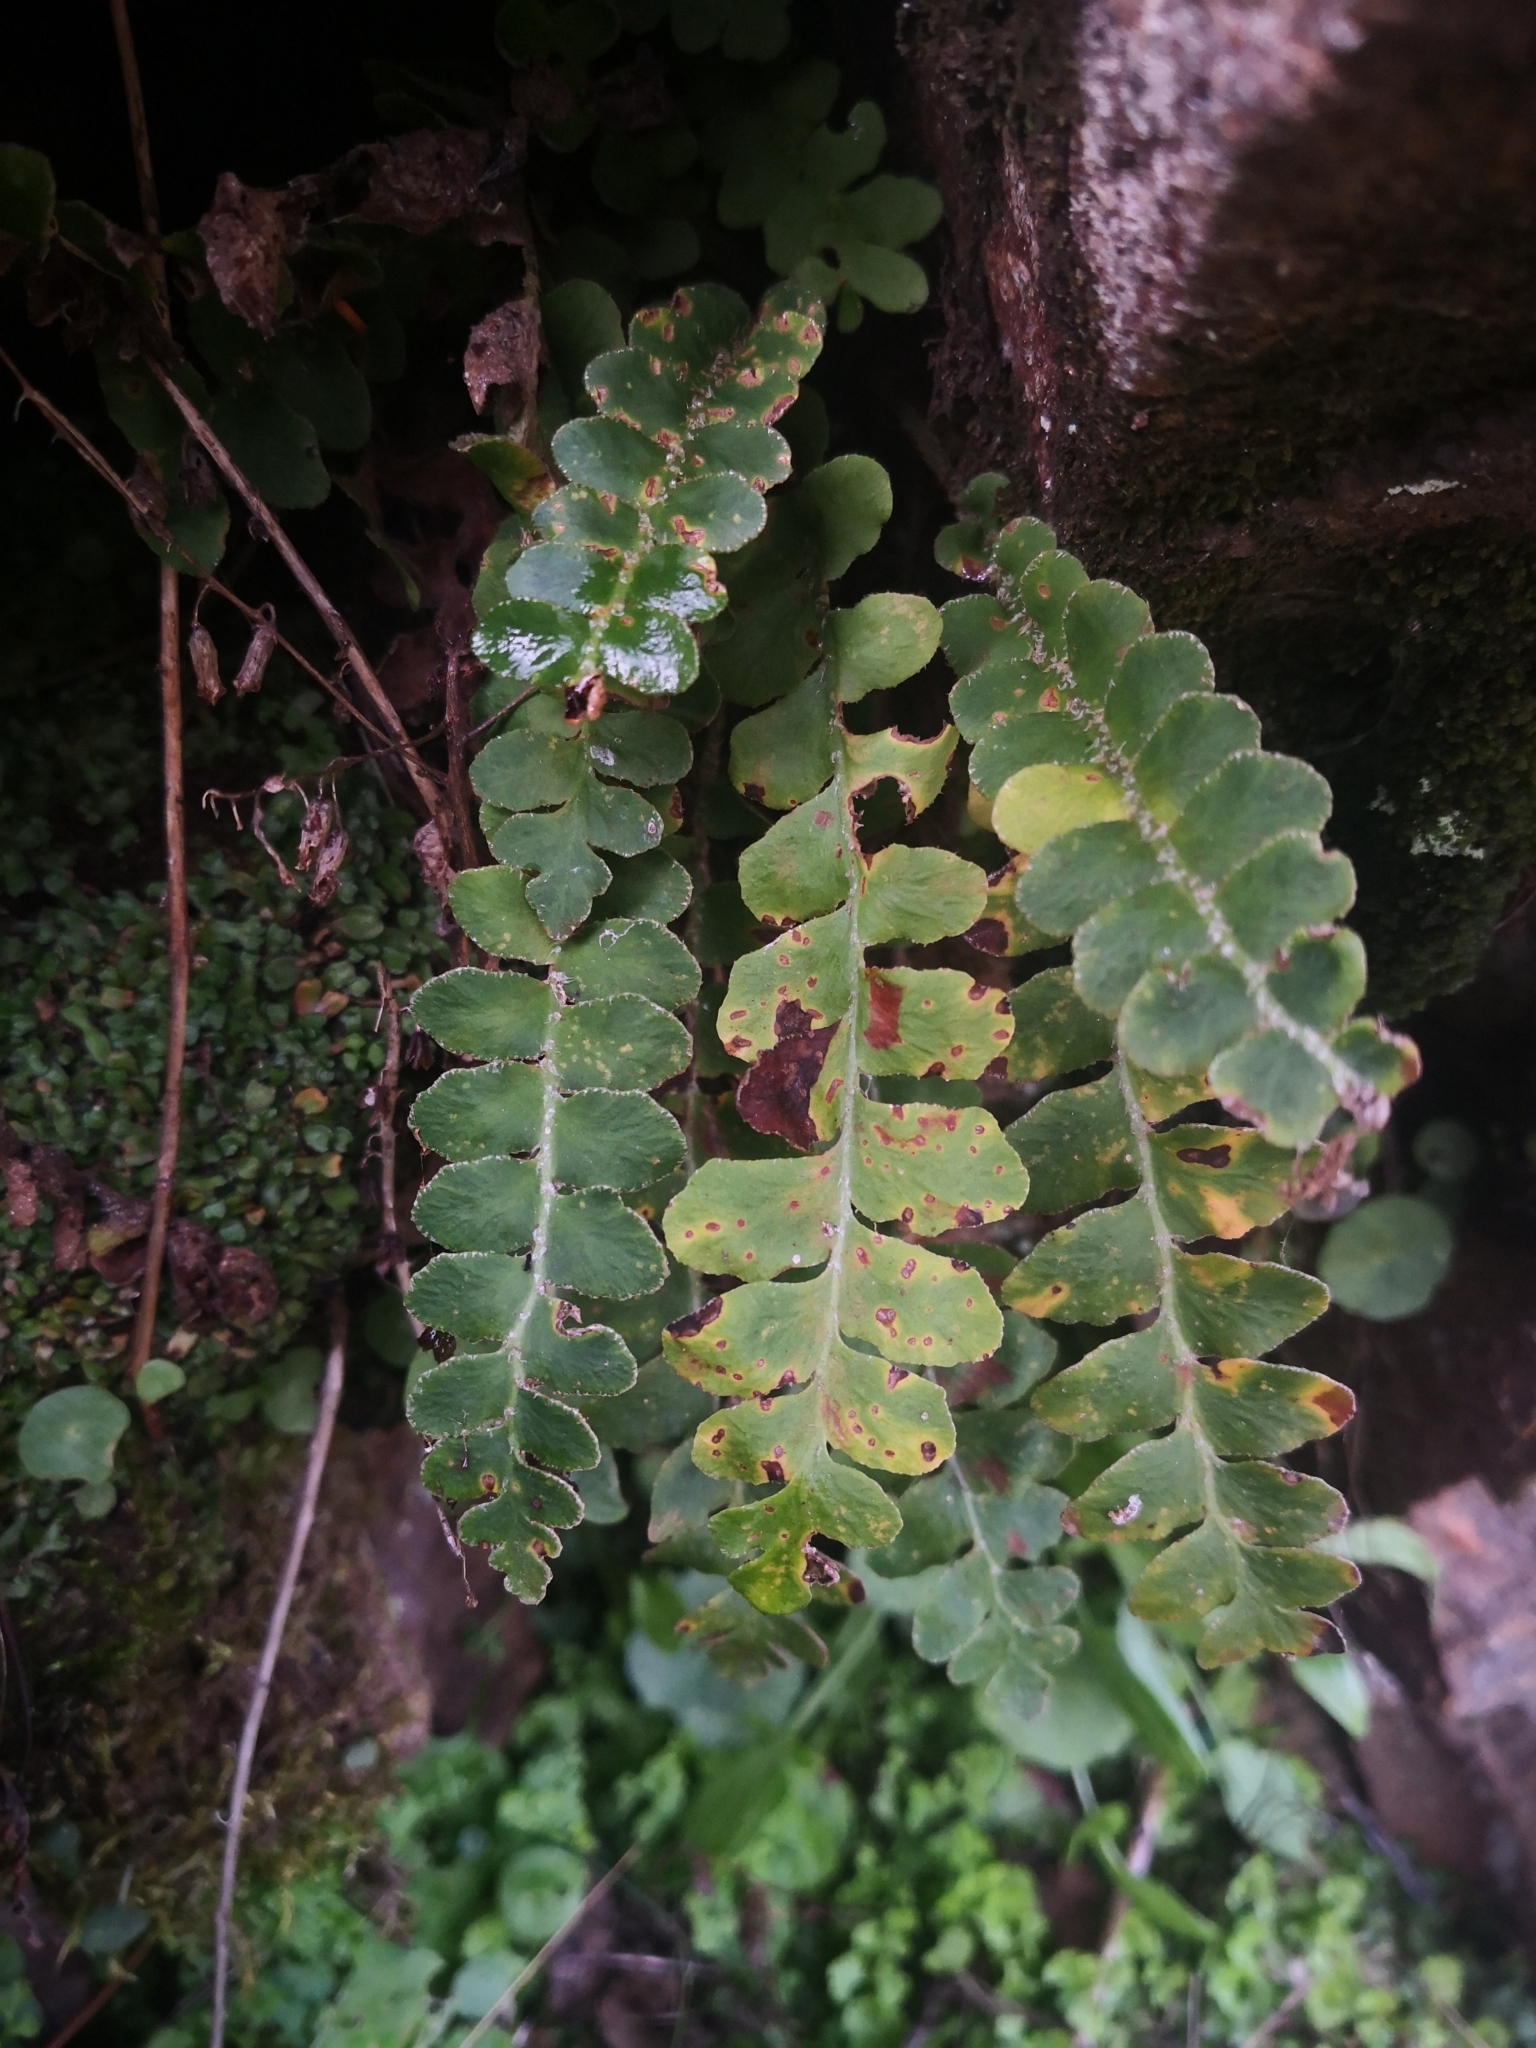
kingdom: Plantae
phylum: Tracheophyta
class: Polypodiopsida
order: Polypodiales
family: Aspleniaceae
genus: Asplenium
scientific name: Asplenium ceterach
